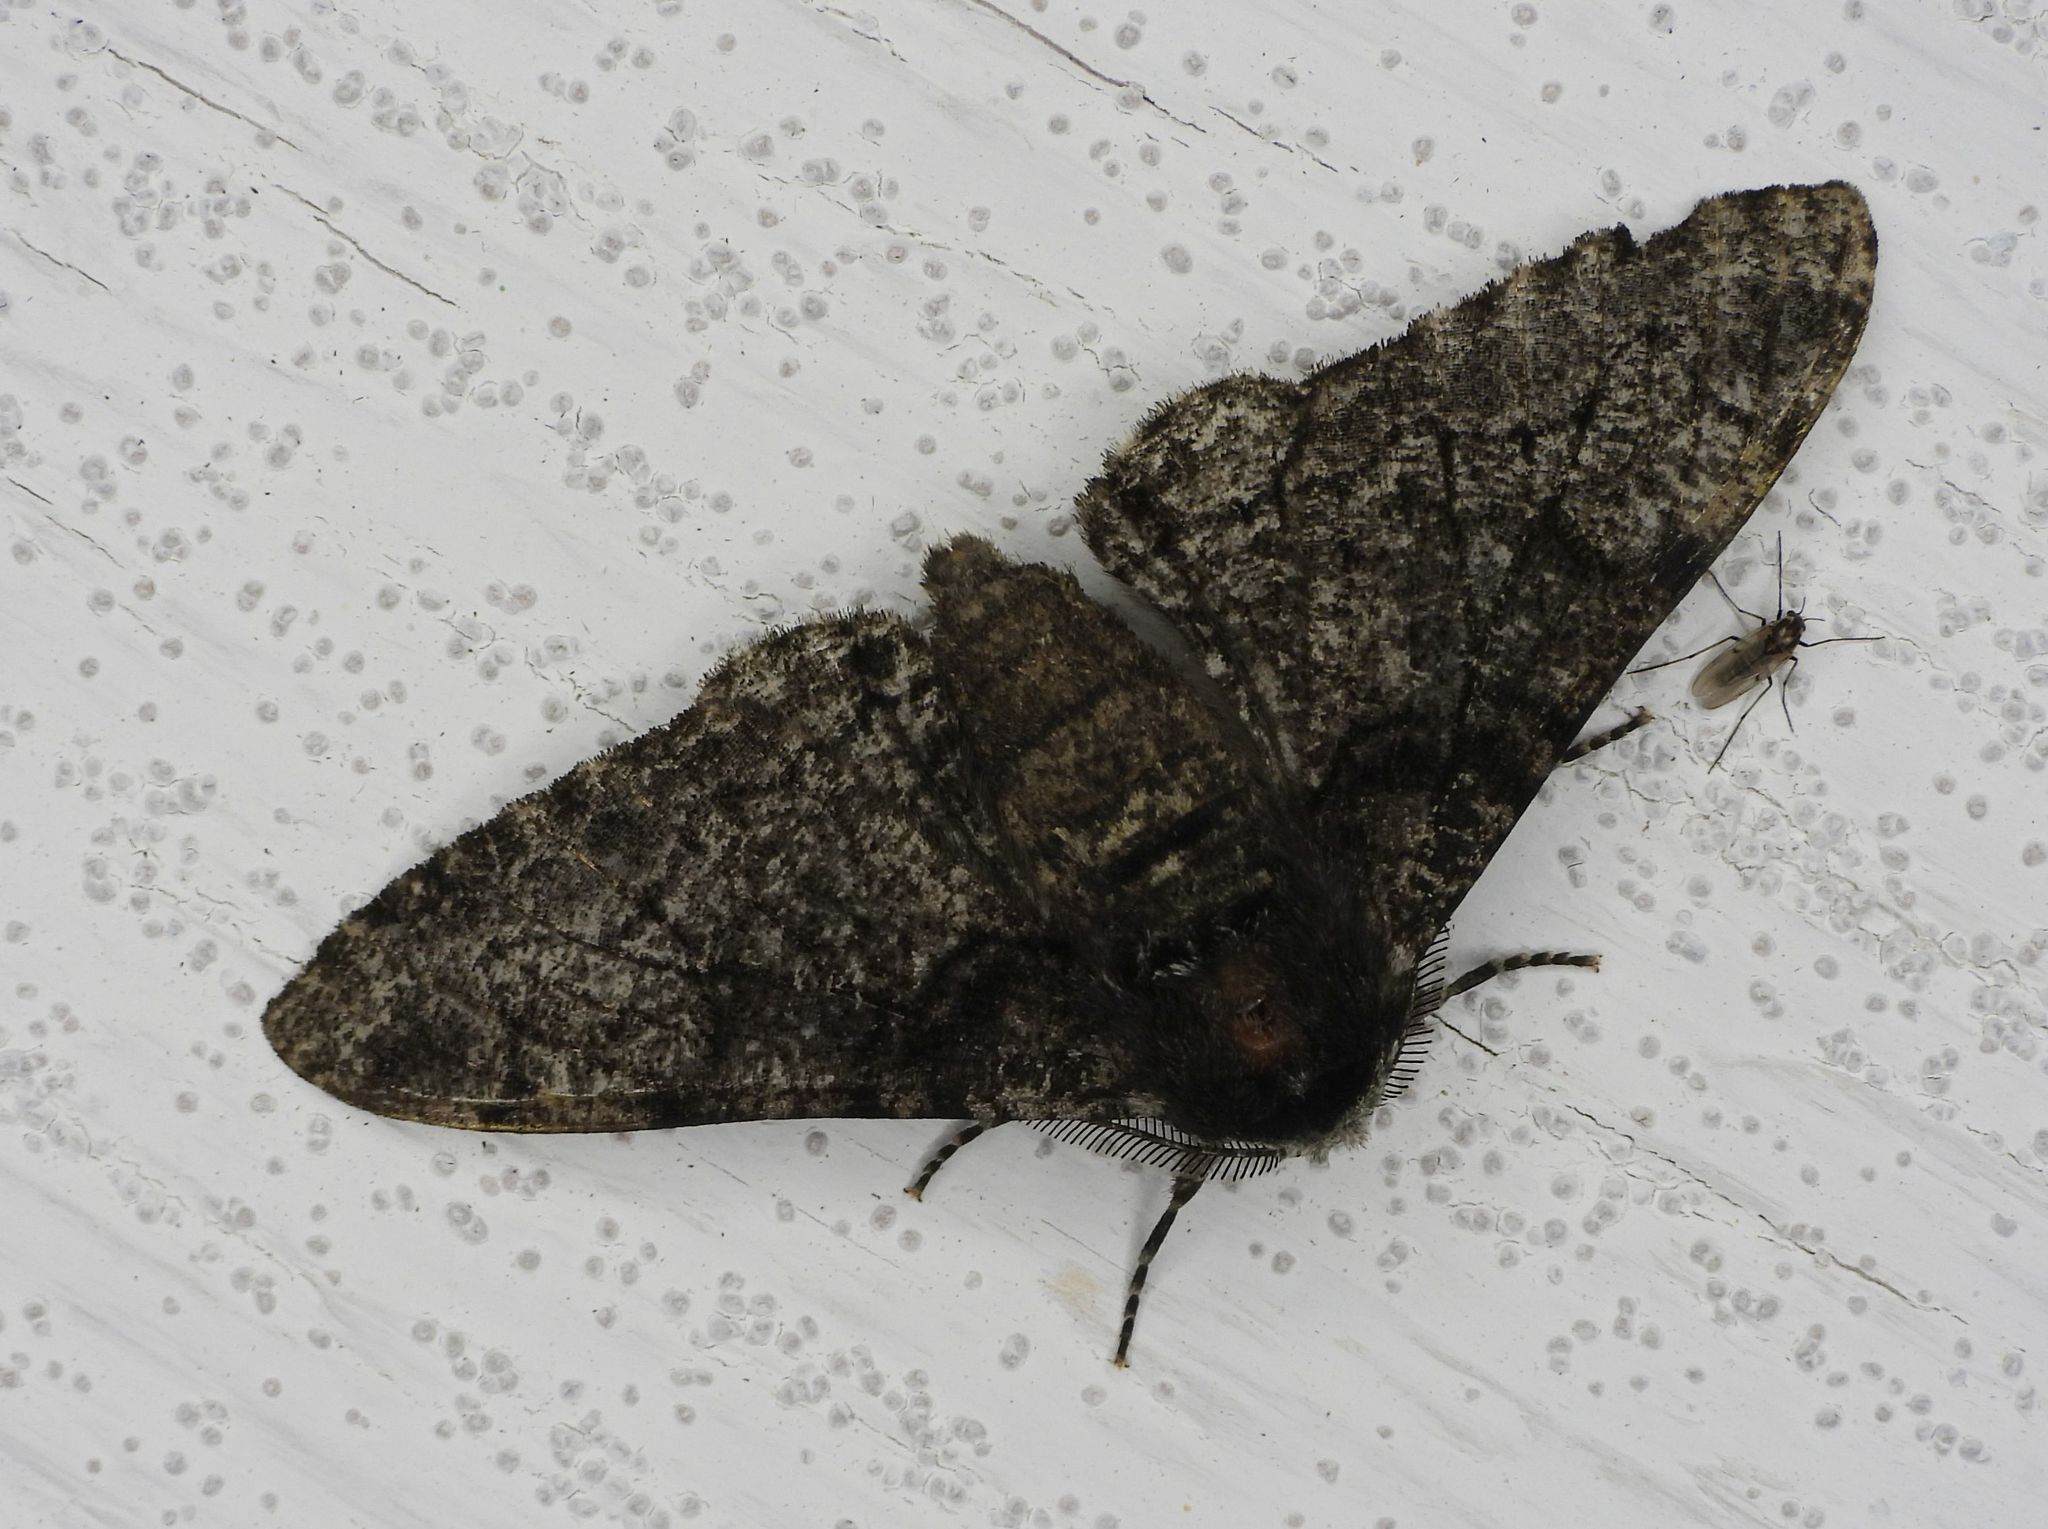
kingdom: Animalia
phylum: Arthropoda
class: Insecta
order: Lepidoptera
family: Geometridae
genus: Biston
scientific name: Biston betularia
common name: Peppered moth
